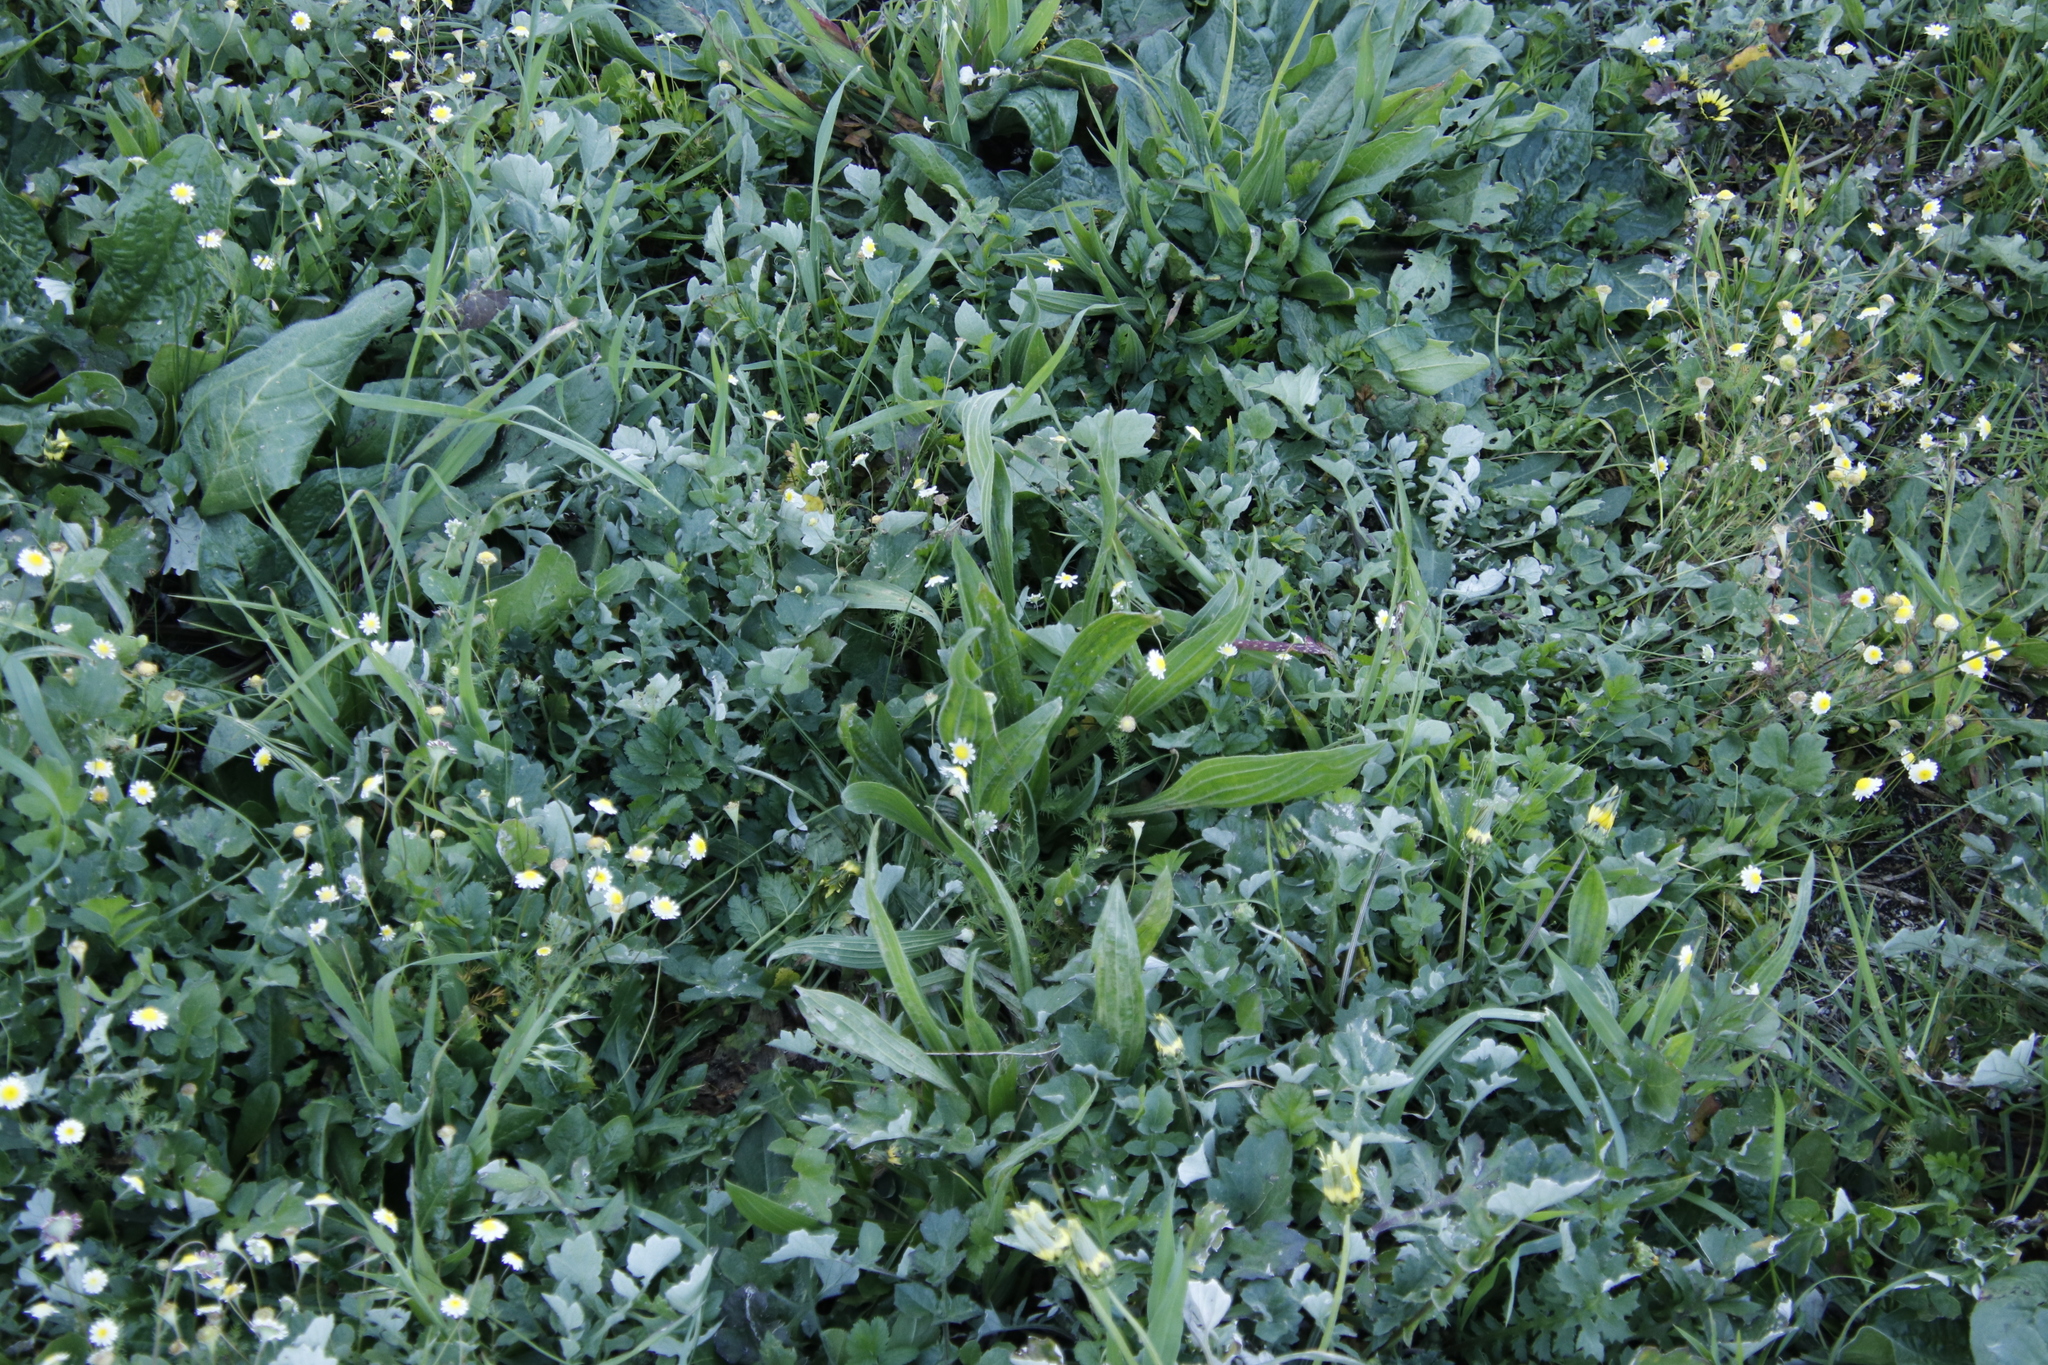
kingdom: Plantae
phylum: Tracheophyta
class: Magnoliopsida
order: Lamiales
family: Plantaginaceae
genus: Plantago
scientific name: Plantago lanceolata
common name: Ribwort plantain
